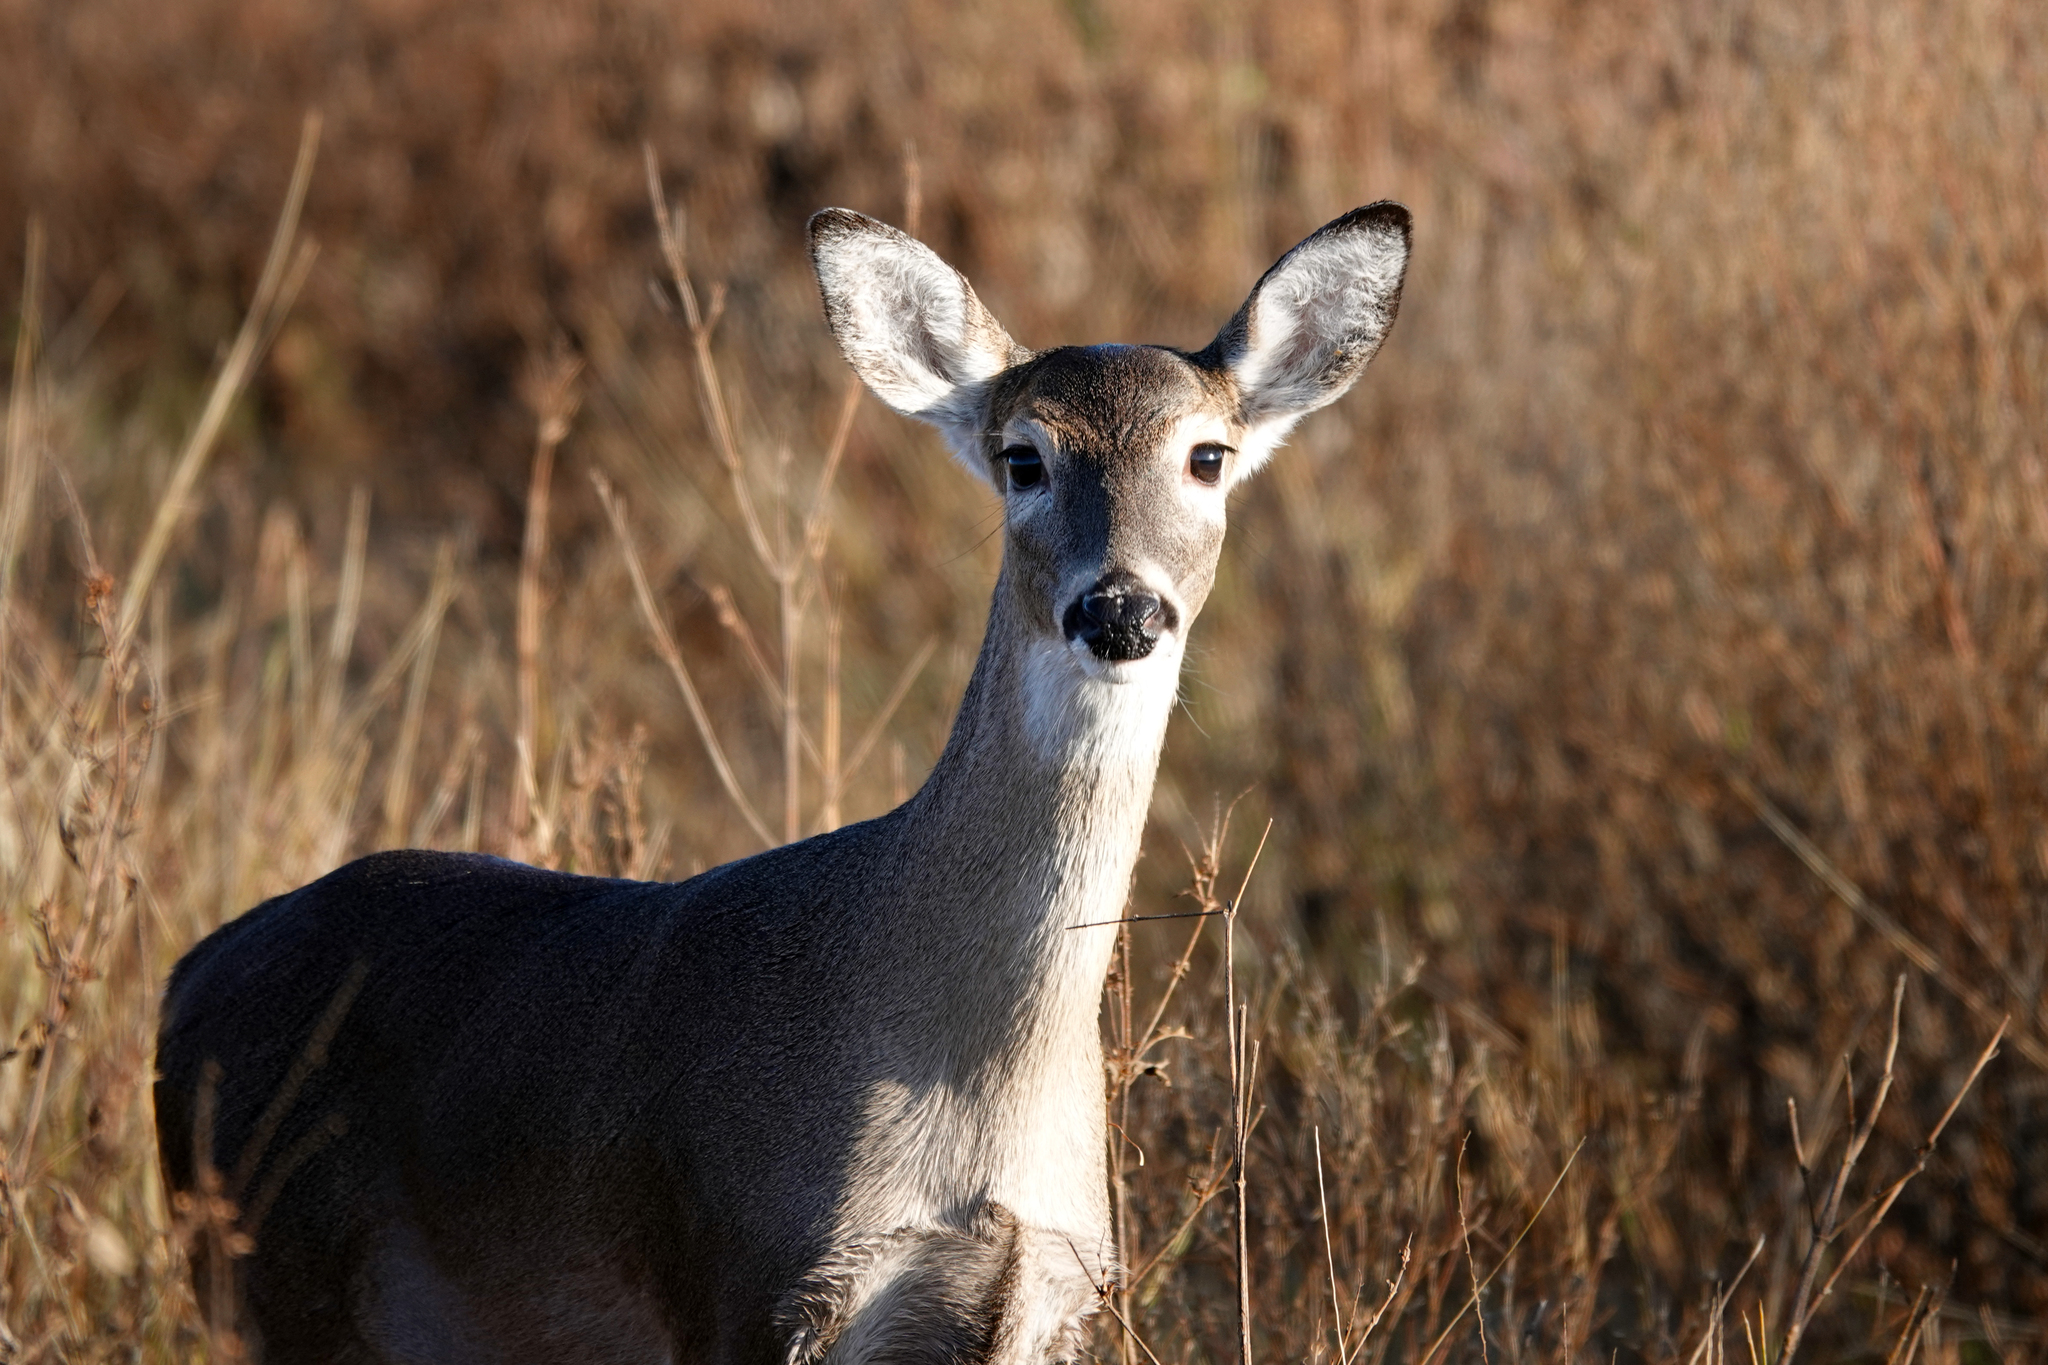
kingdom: Animalia
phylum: Chordata
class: Mammalia
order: Artiodactyla
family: Cervidae
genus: Odocoileus
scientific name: Odocoileus virginianus
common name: White-tailed deer
